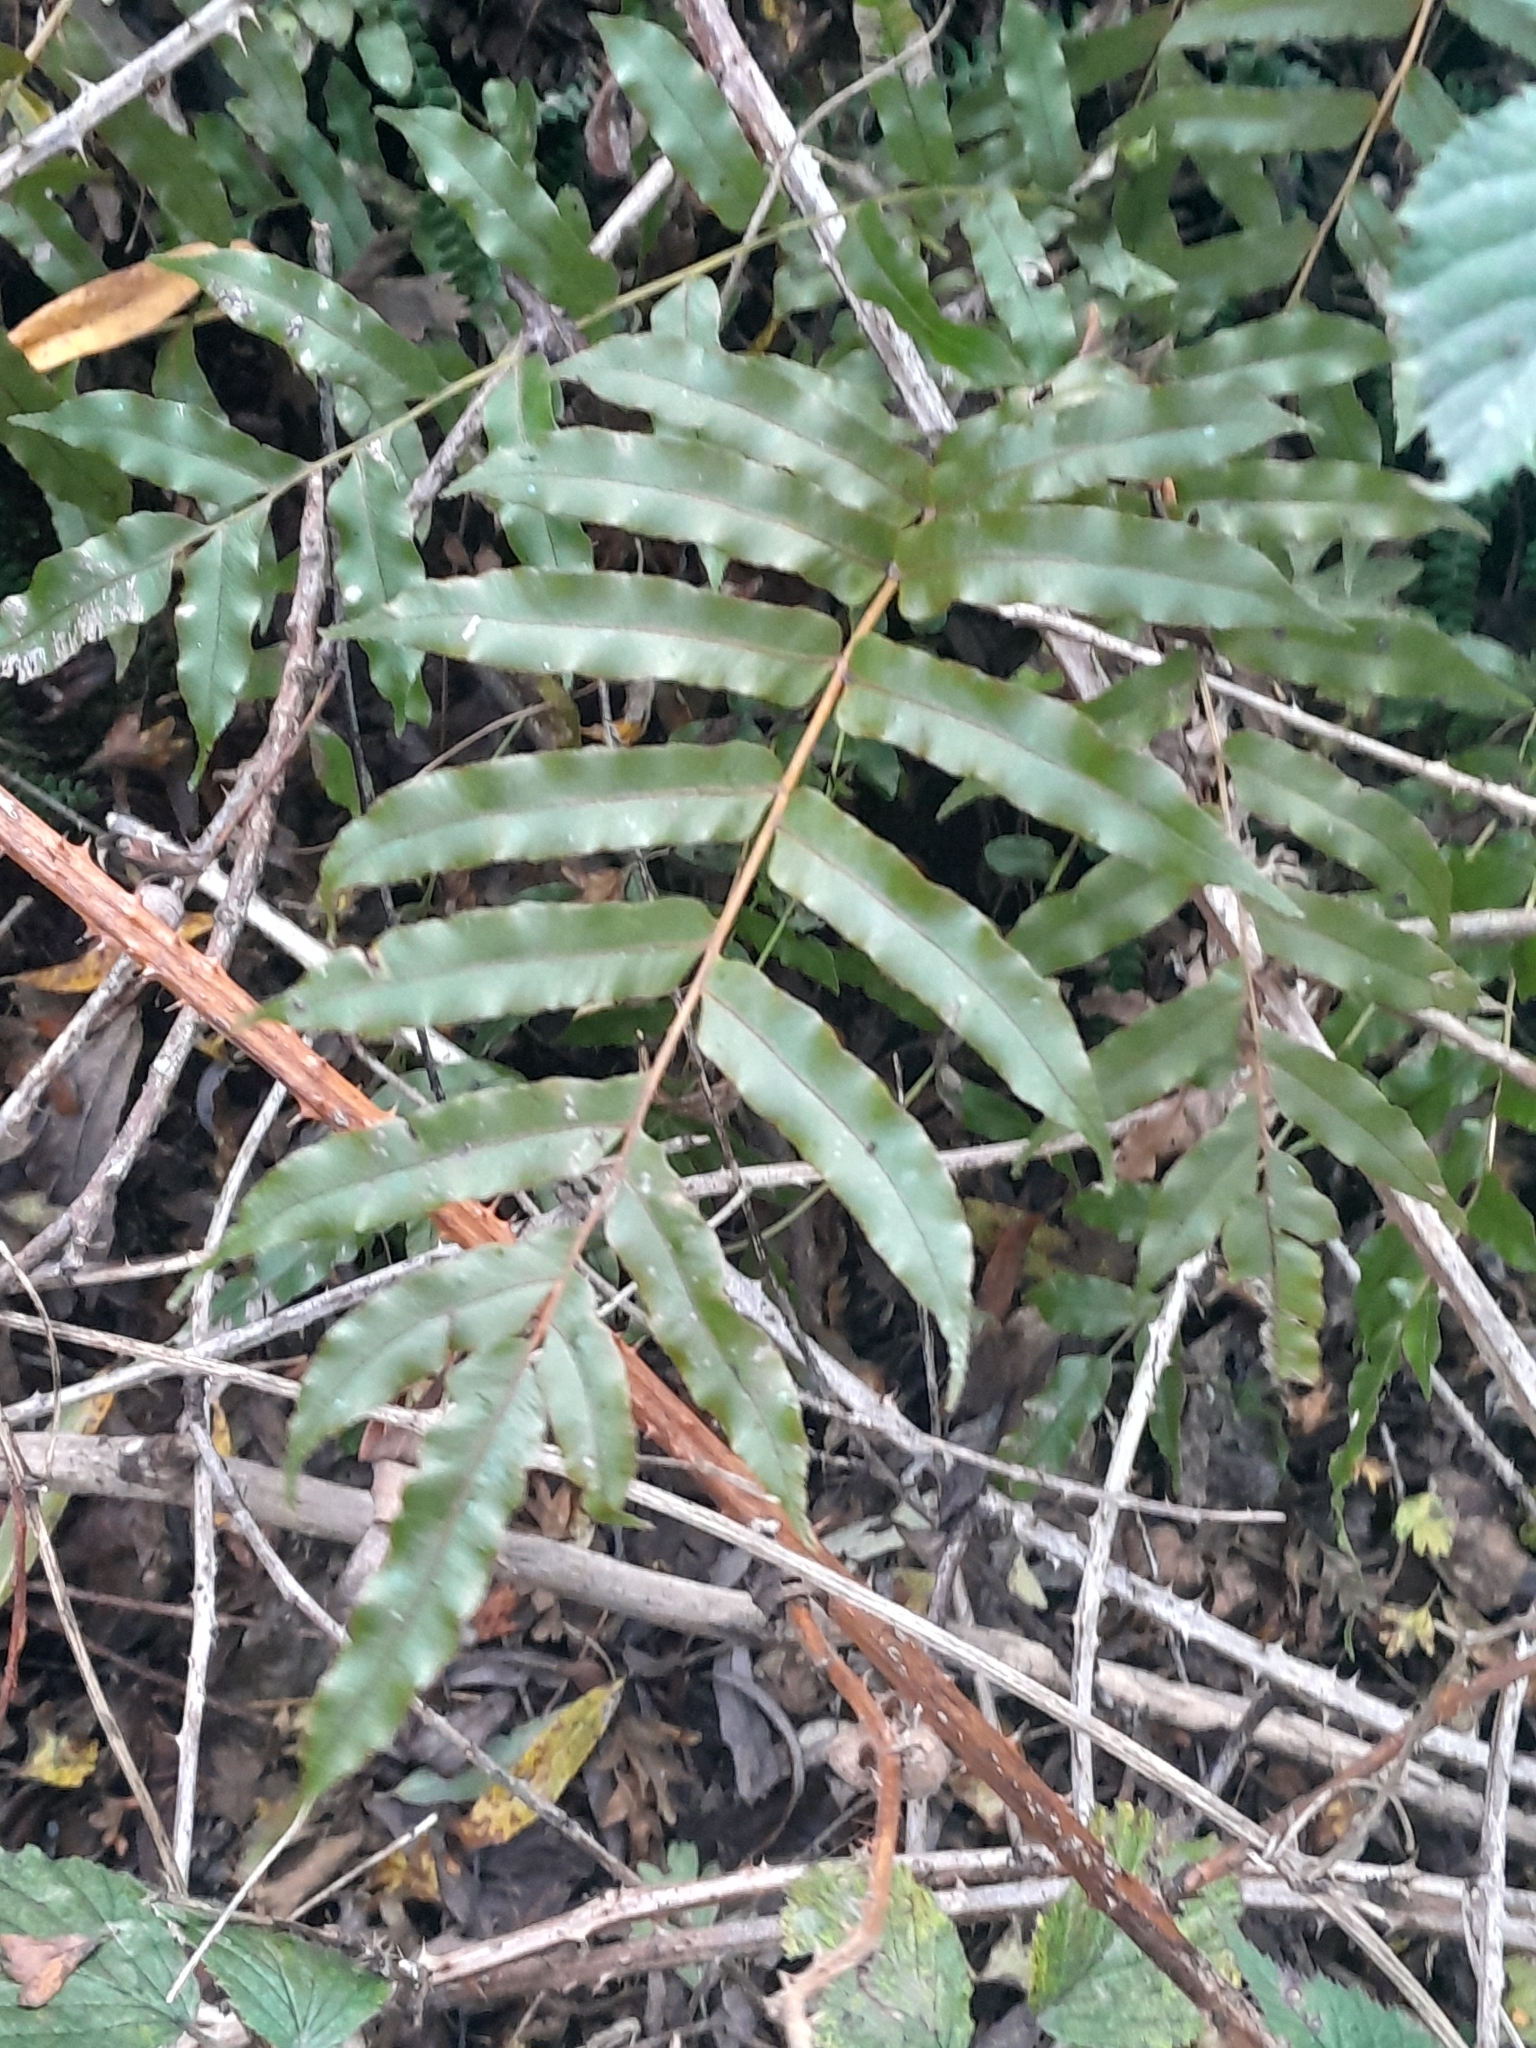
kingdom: Plantae
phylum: Tracheophyta
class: Polypodiopsida
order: Polypodiales
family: Blechnaceae
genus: Parablechnum
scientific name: Parablechnum minus
